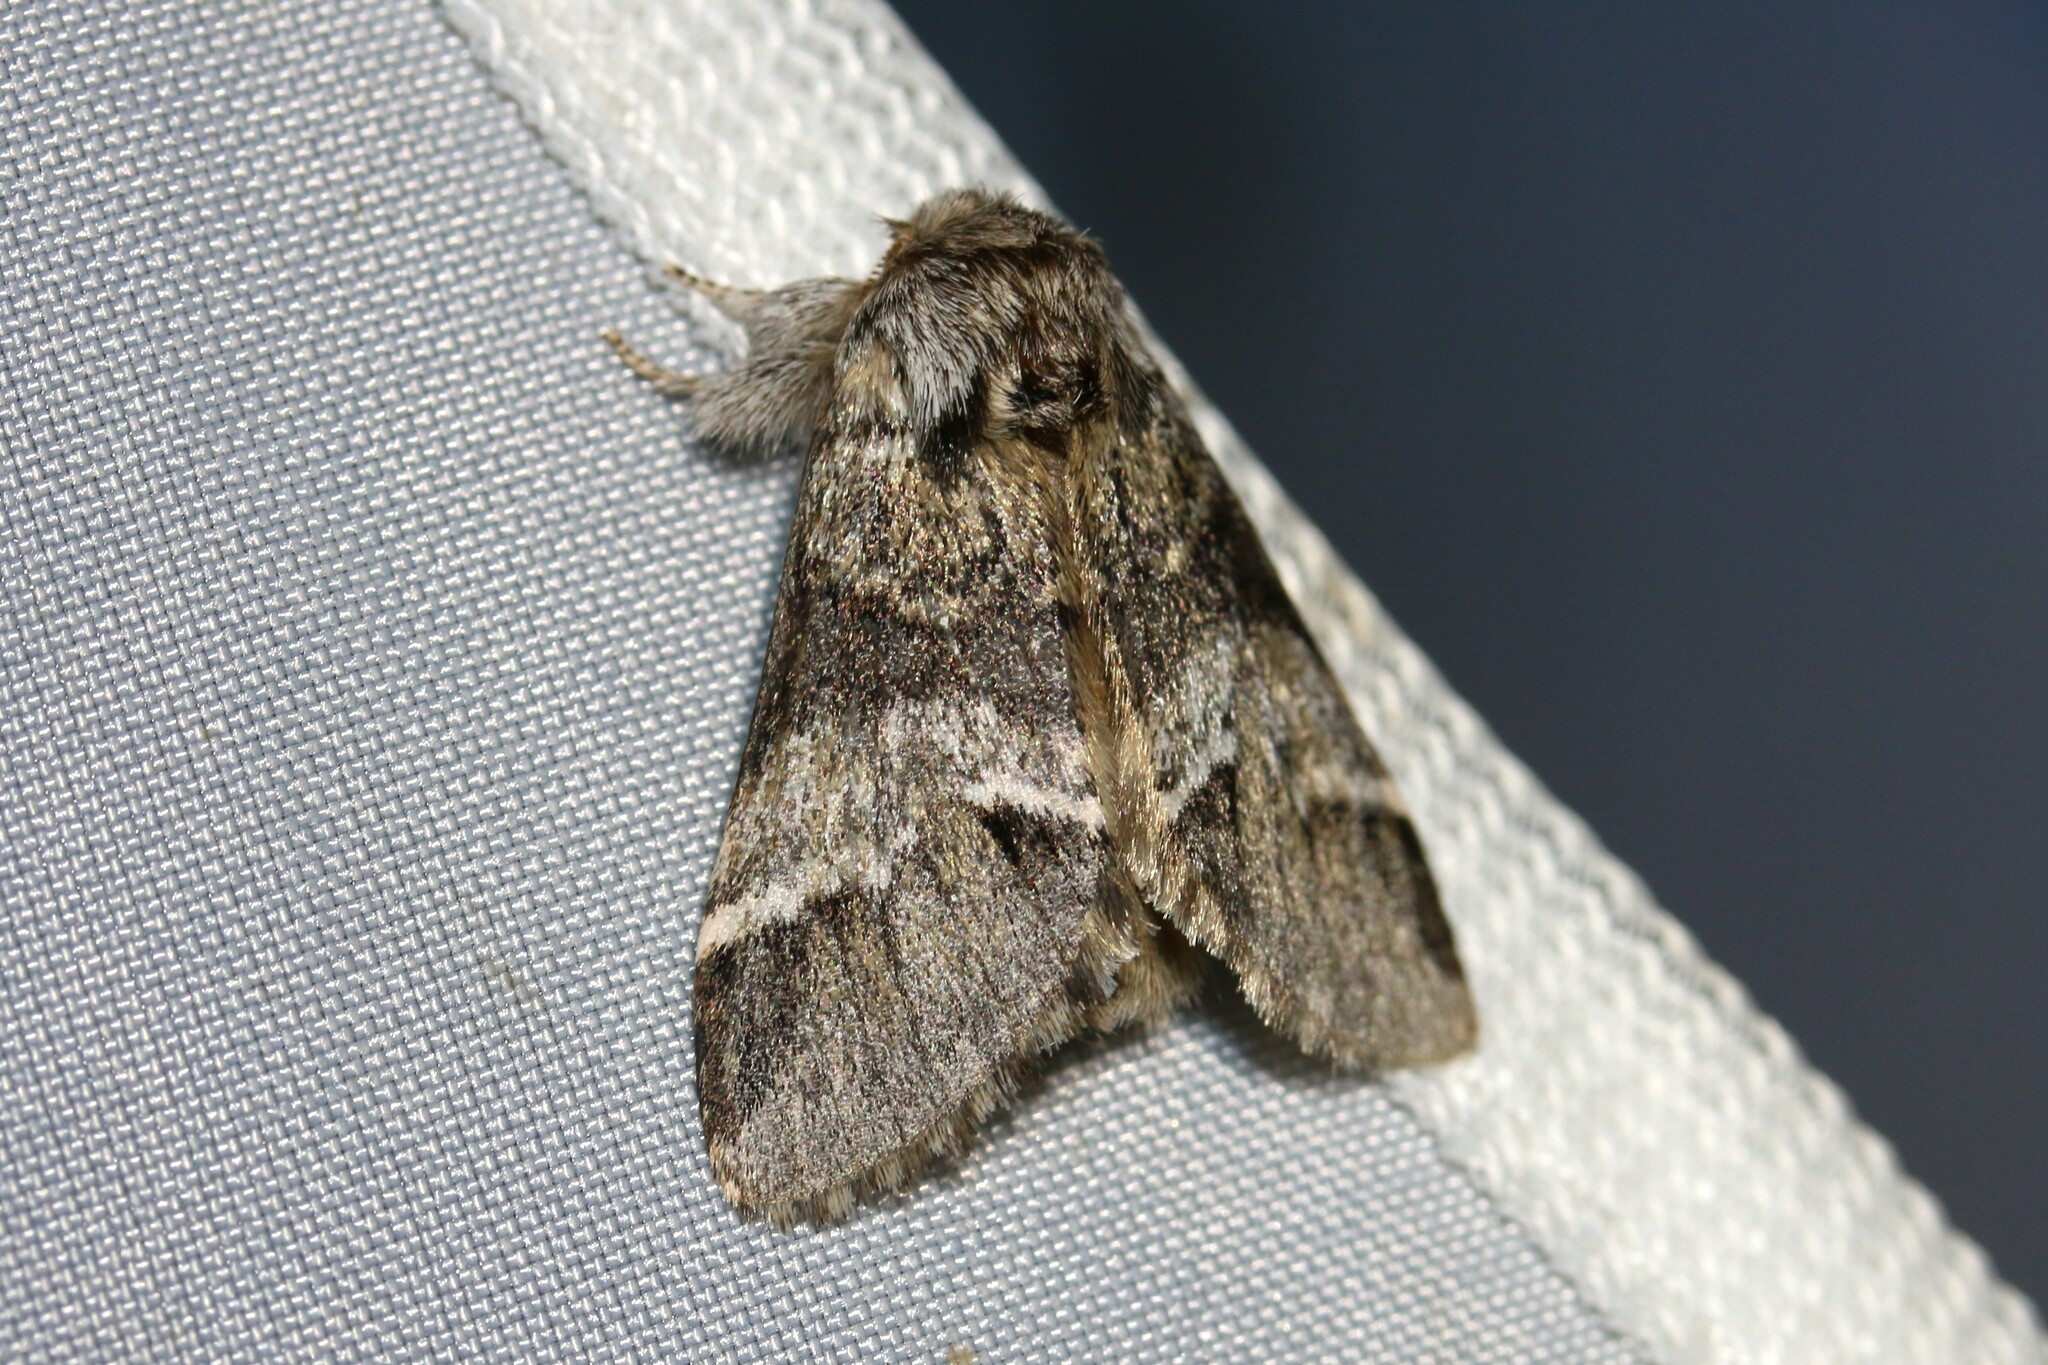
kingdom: Animalia
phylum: Arthropoda
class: Insecta
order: Lepidoptera
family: Notodontidae
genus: Drymonia
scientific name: Drymonia dodonaea
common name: Marbled brown
